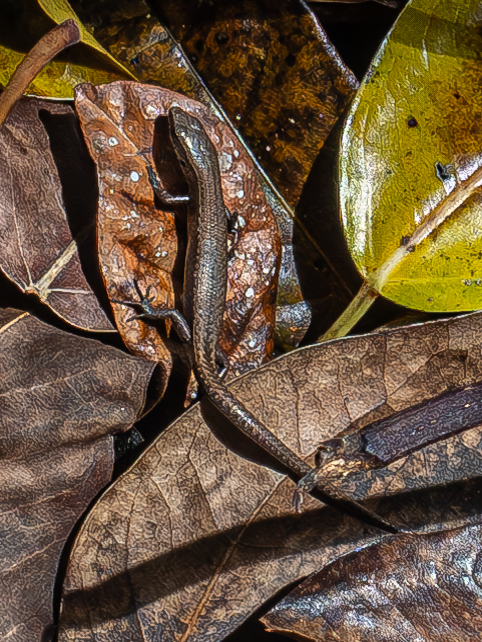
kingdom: Animalia
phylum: Chordata
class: Squamata
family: Scincidae
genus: Caledoniscincus
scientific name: Caledoniscincus austrocaledonicus
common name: Common litter skink
